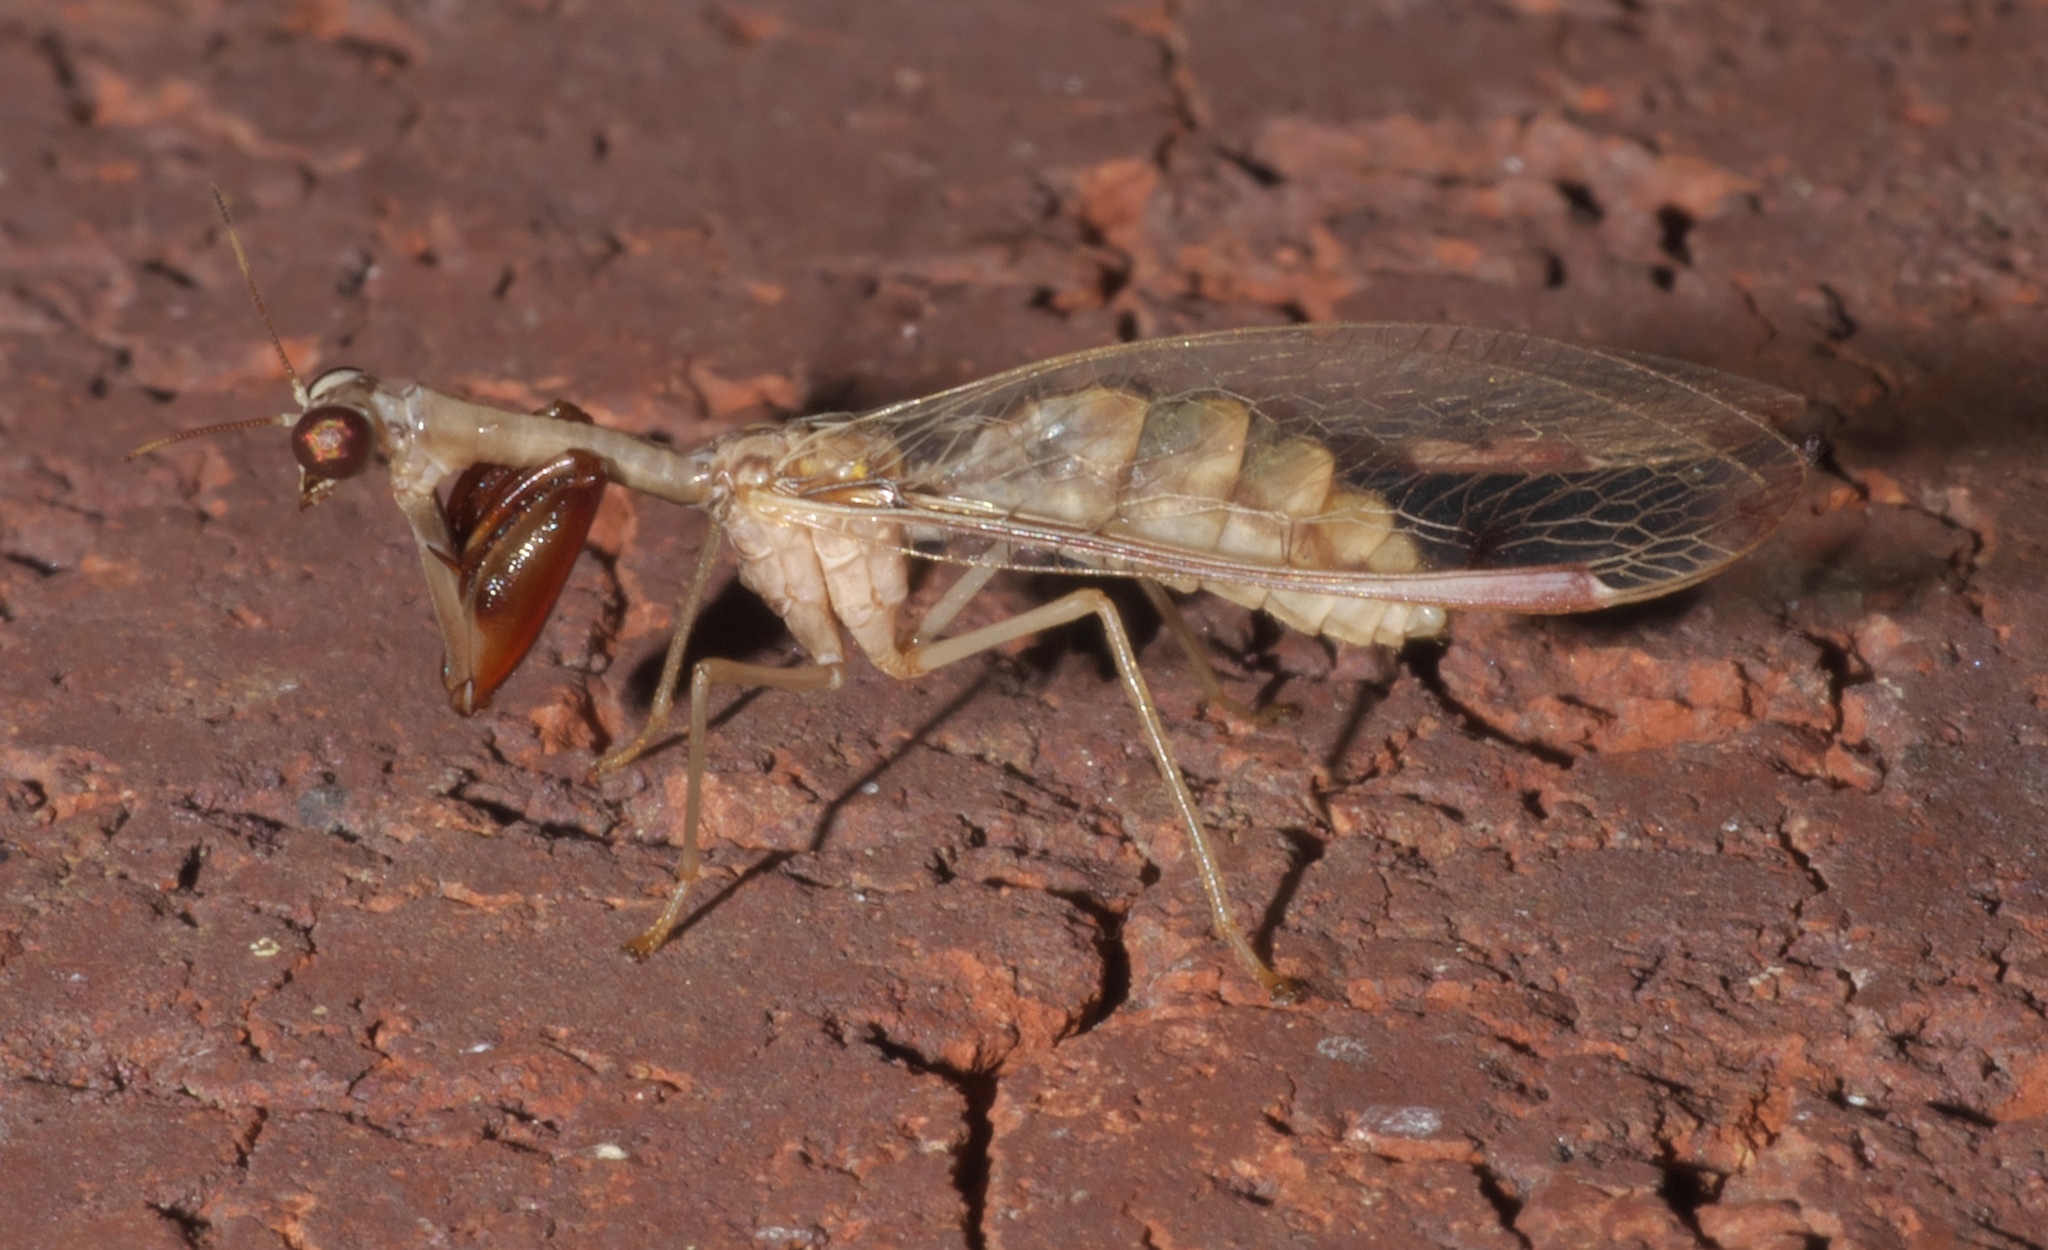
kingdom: Animalia
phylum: Arthropoda
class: Insecta
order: Neuroptera
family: Mantispidae
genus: Dicromantispa
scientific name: Dicromantispa interrupta
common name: Four-spotted mantidfly
